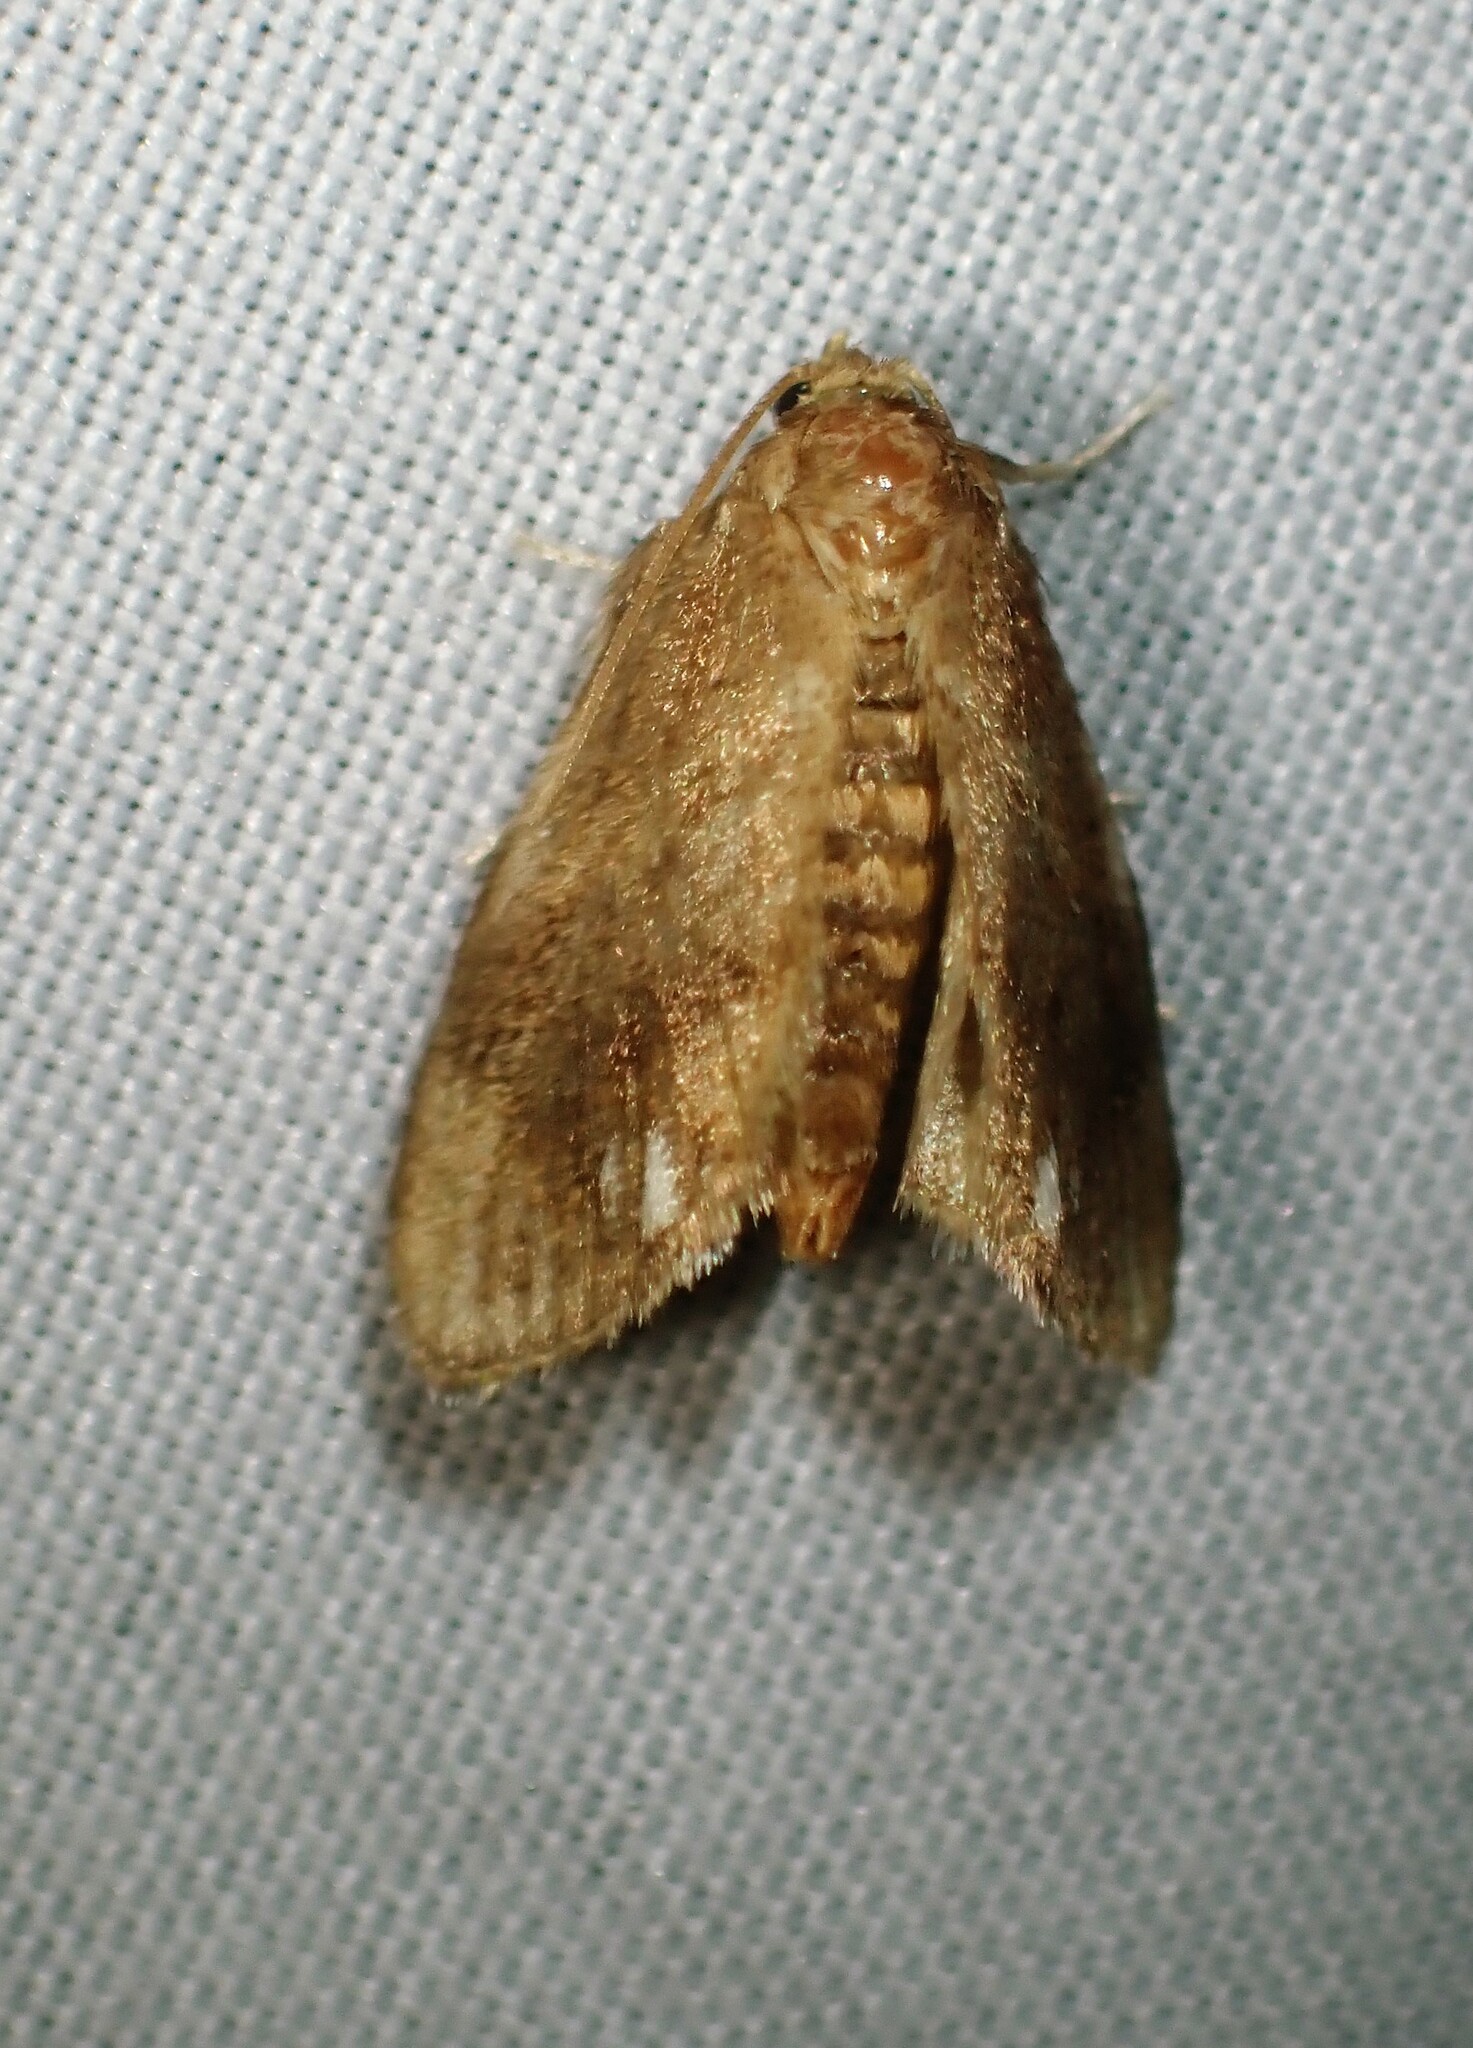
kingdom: Animalia
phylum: Arthropoda
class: Insecta
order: Lepidoptera
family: Limacodidae
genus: Packardia
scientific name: Packardia geminata
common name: Jeweled tailed slug moth
